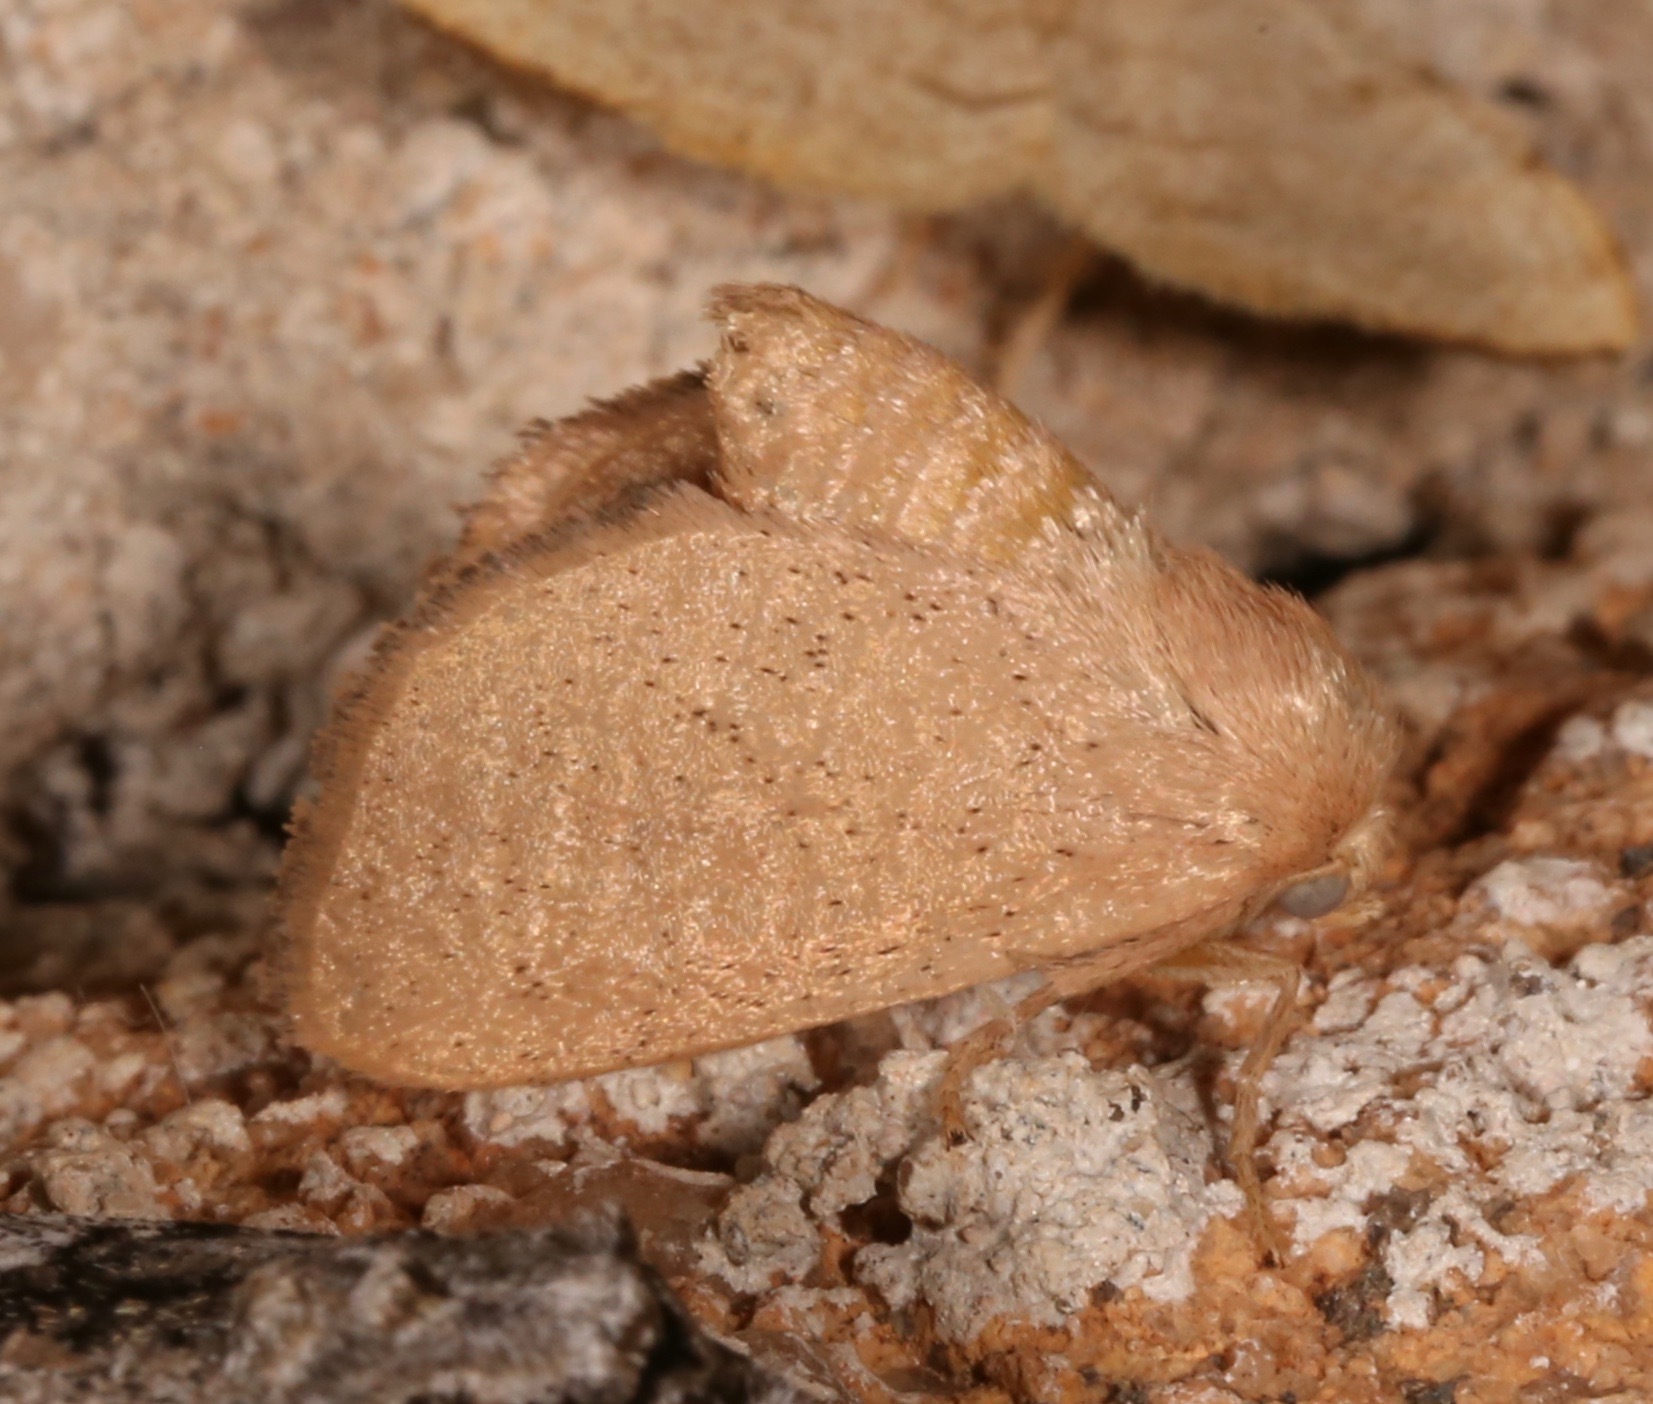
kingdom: Animalia
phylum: Arthropoda
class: Insecta
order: Lepidoptera
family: Limacodidae
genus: Isa
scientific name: Isa schaefferana
